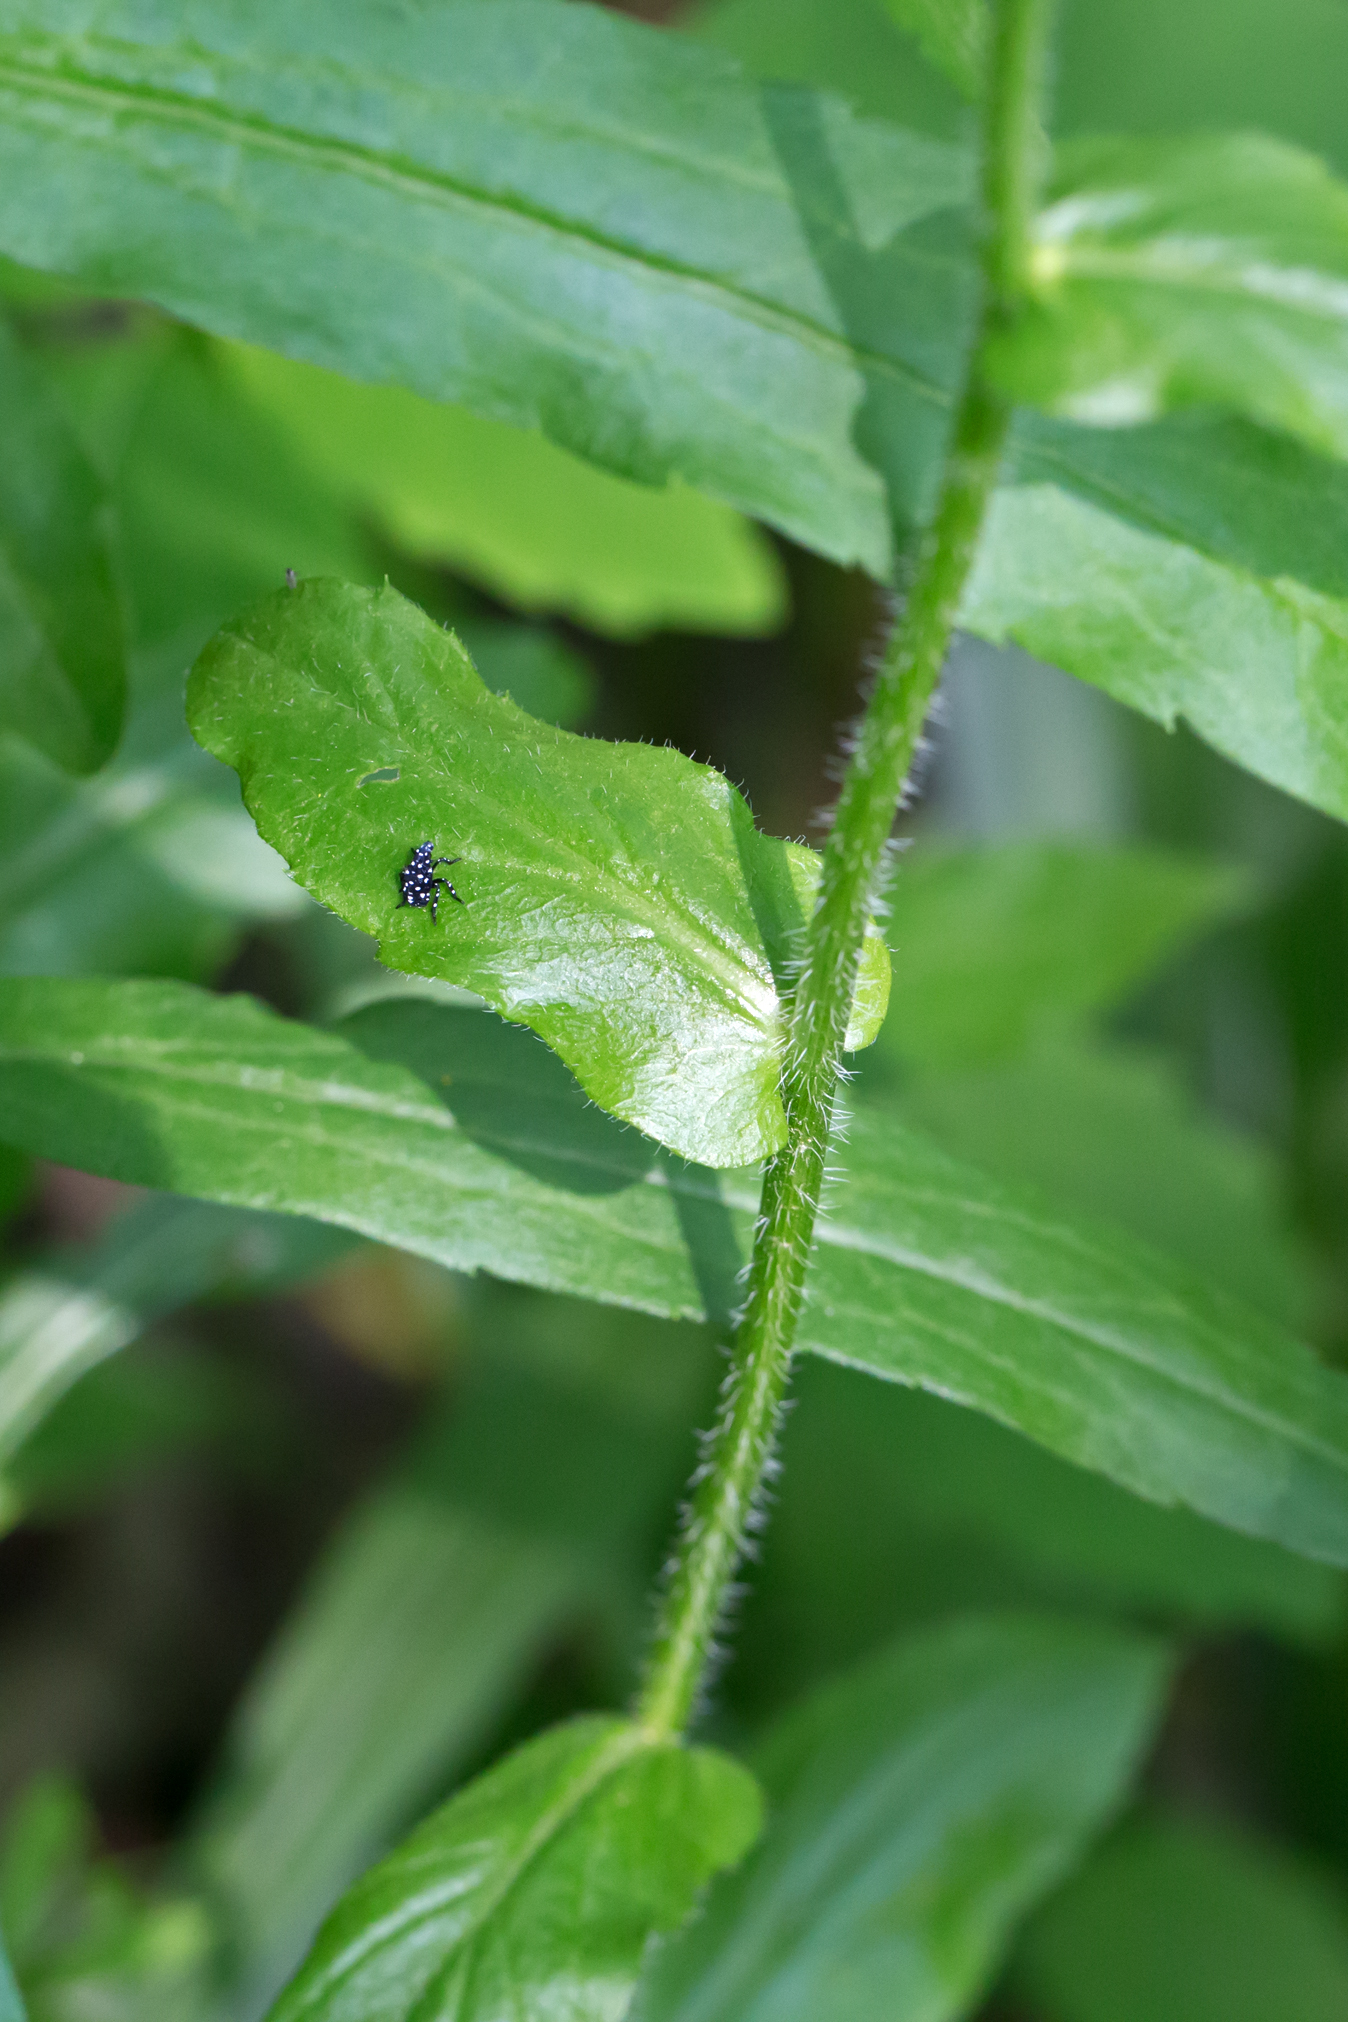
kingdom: Plantae
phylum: Tracheophyta
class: Magnoliopsida
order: Asterales
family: Asteraceae
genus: Erigeron
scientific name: Erigeron philadelphicus
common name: Robin's-plantain
